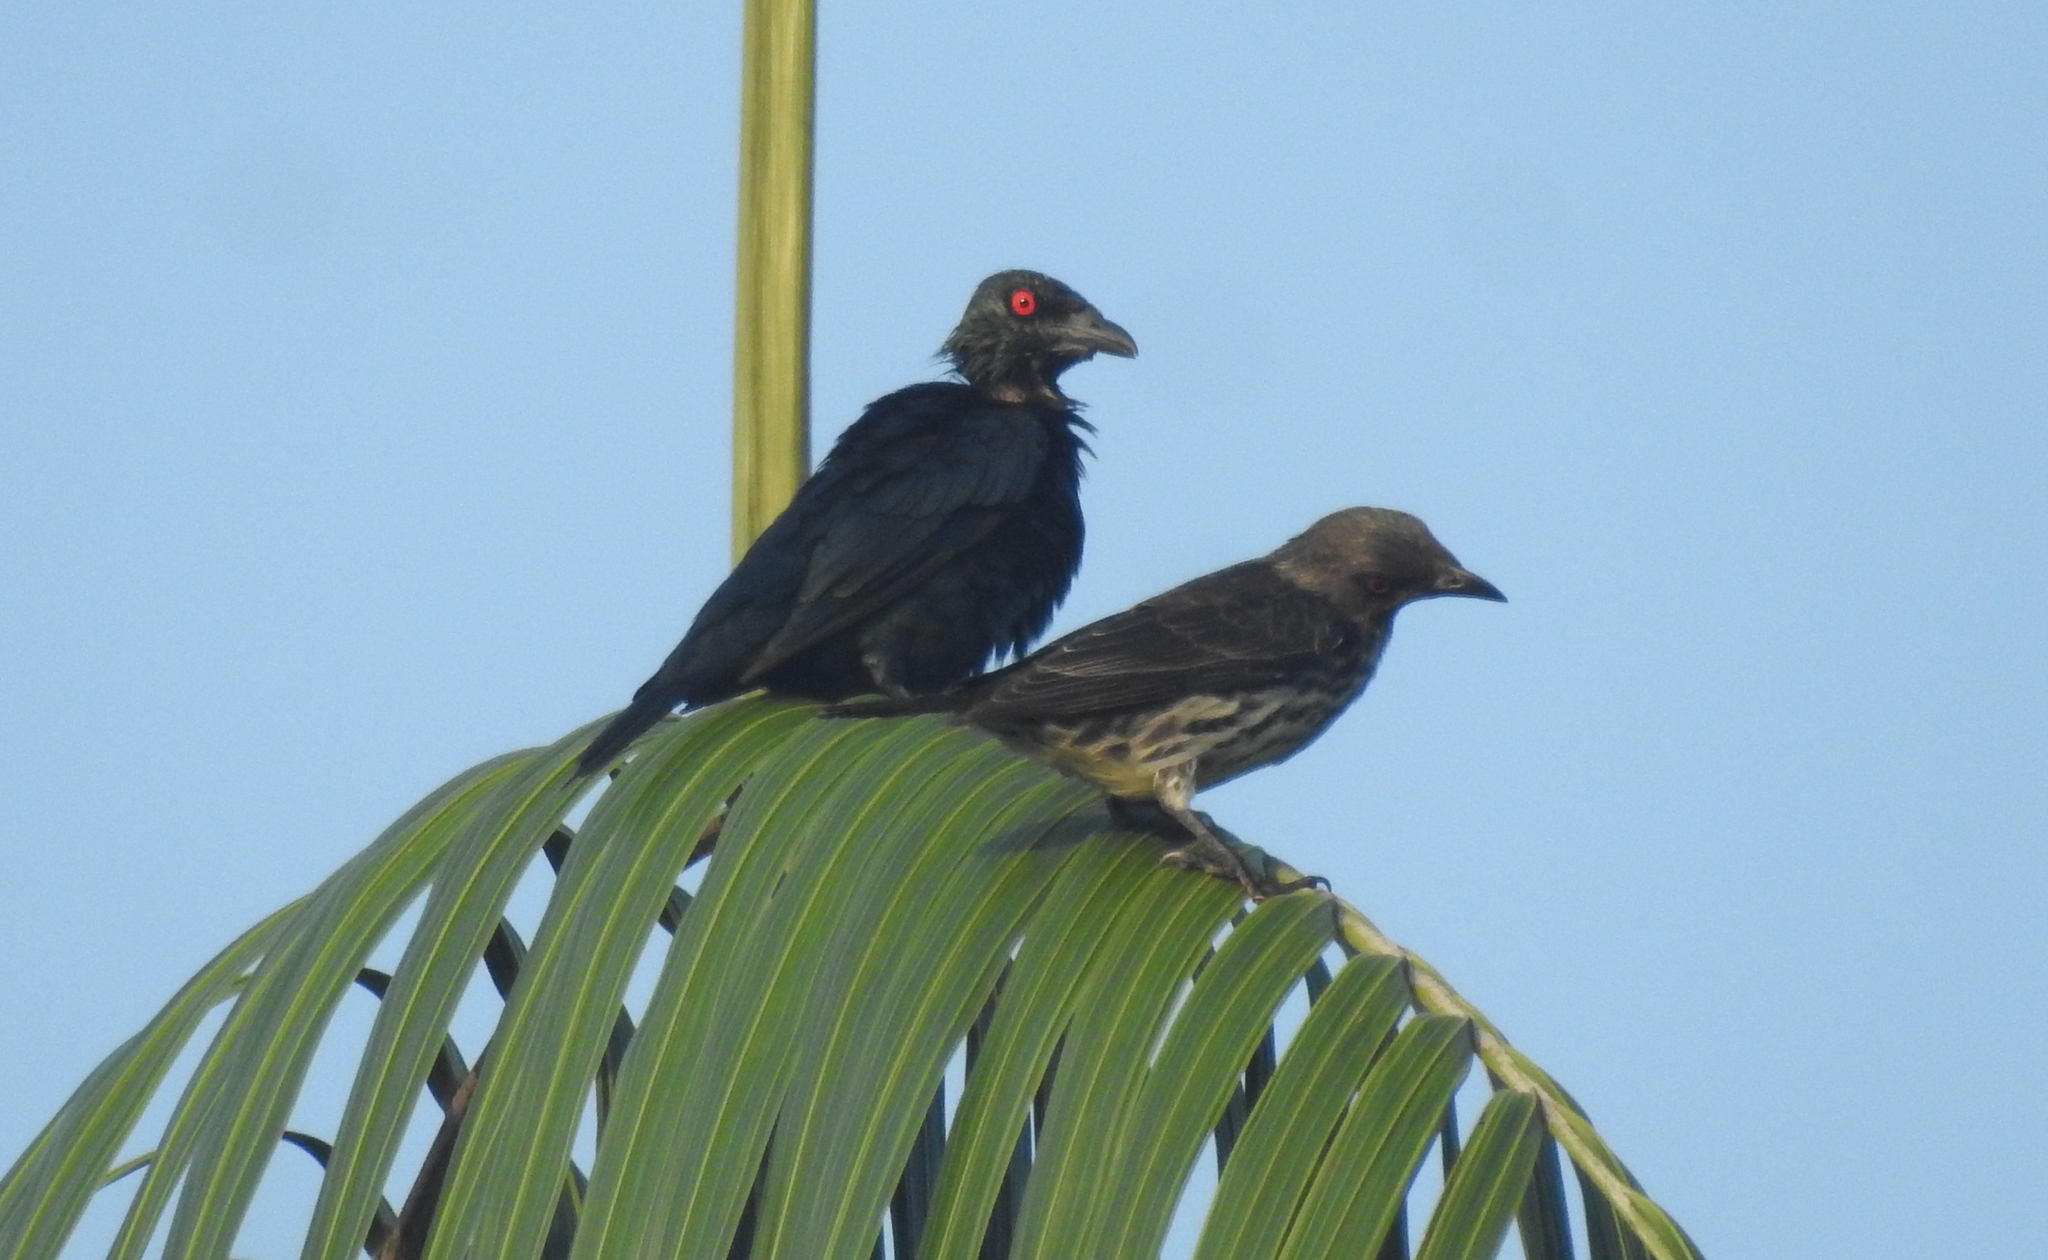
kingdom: Animalia
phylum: Chordata
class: Aves
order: Passeriformes
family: Sturnidae
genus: Aplonis
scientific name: Aplonis panayensis
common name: Asian glossy starling
